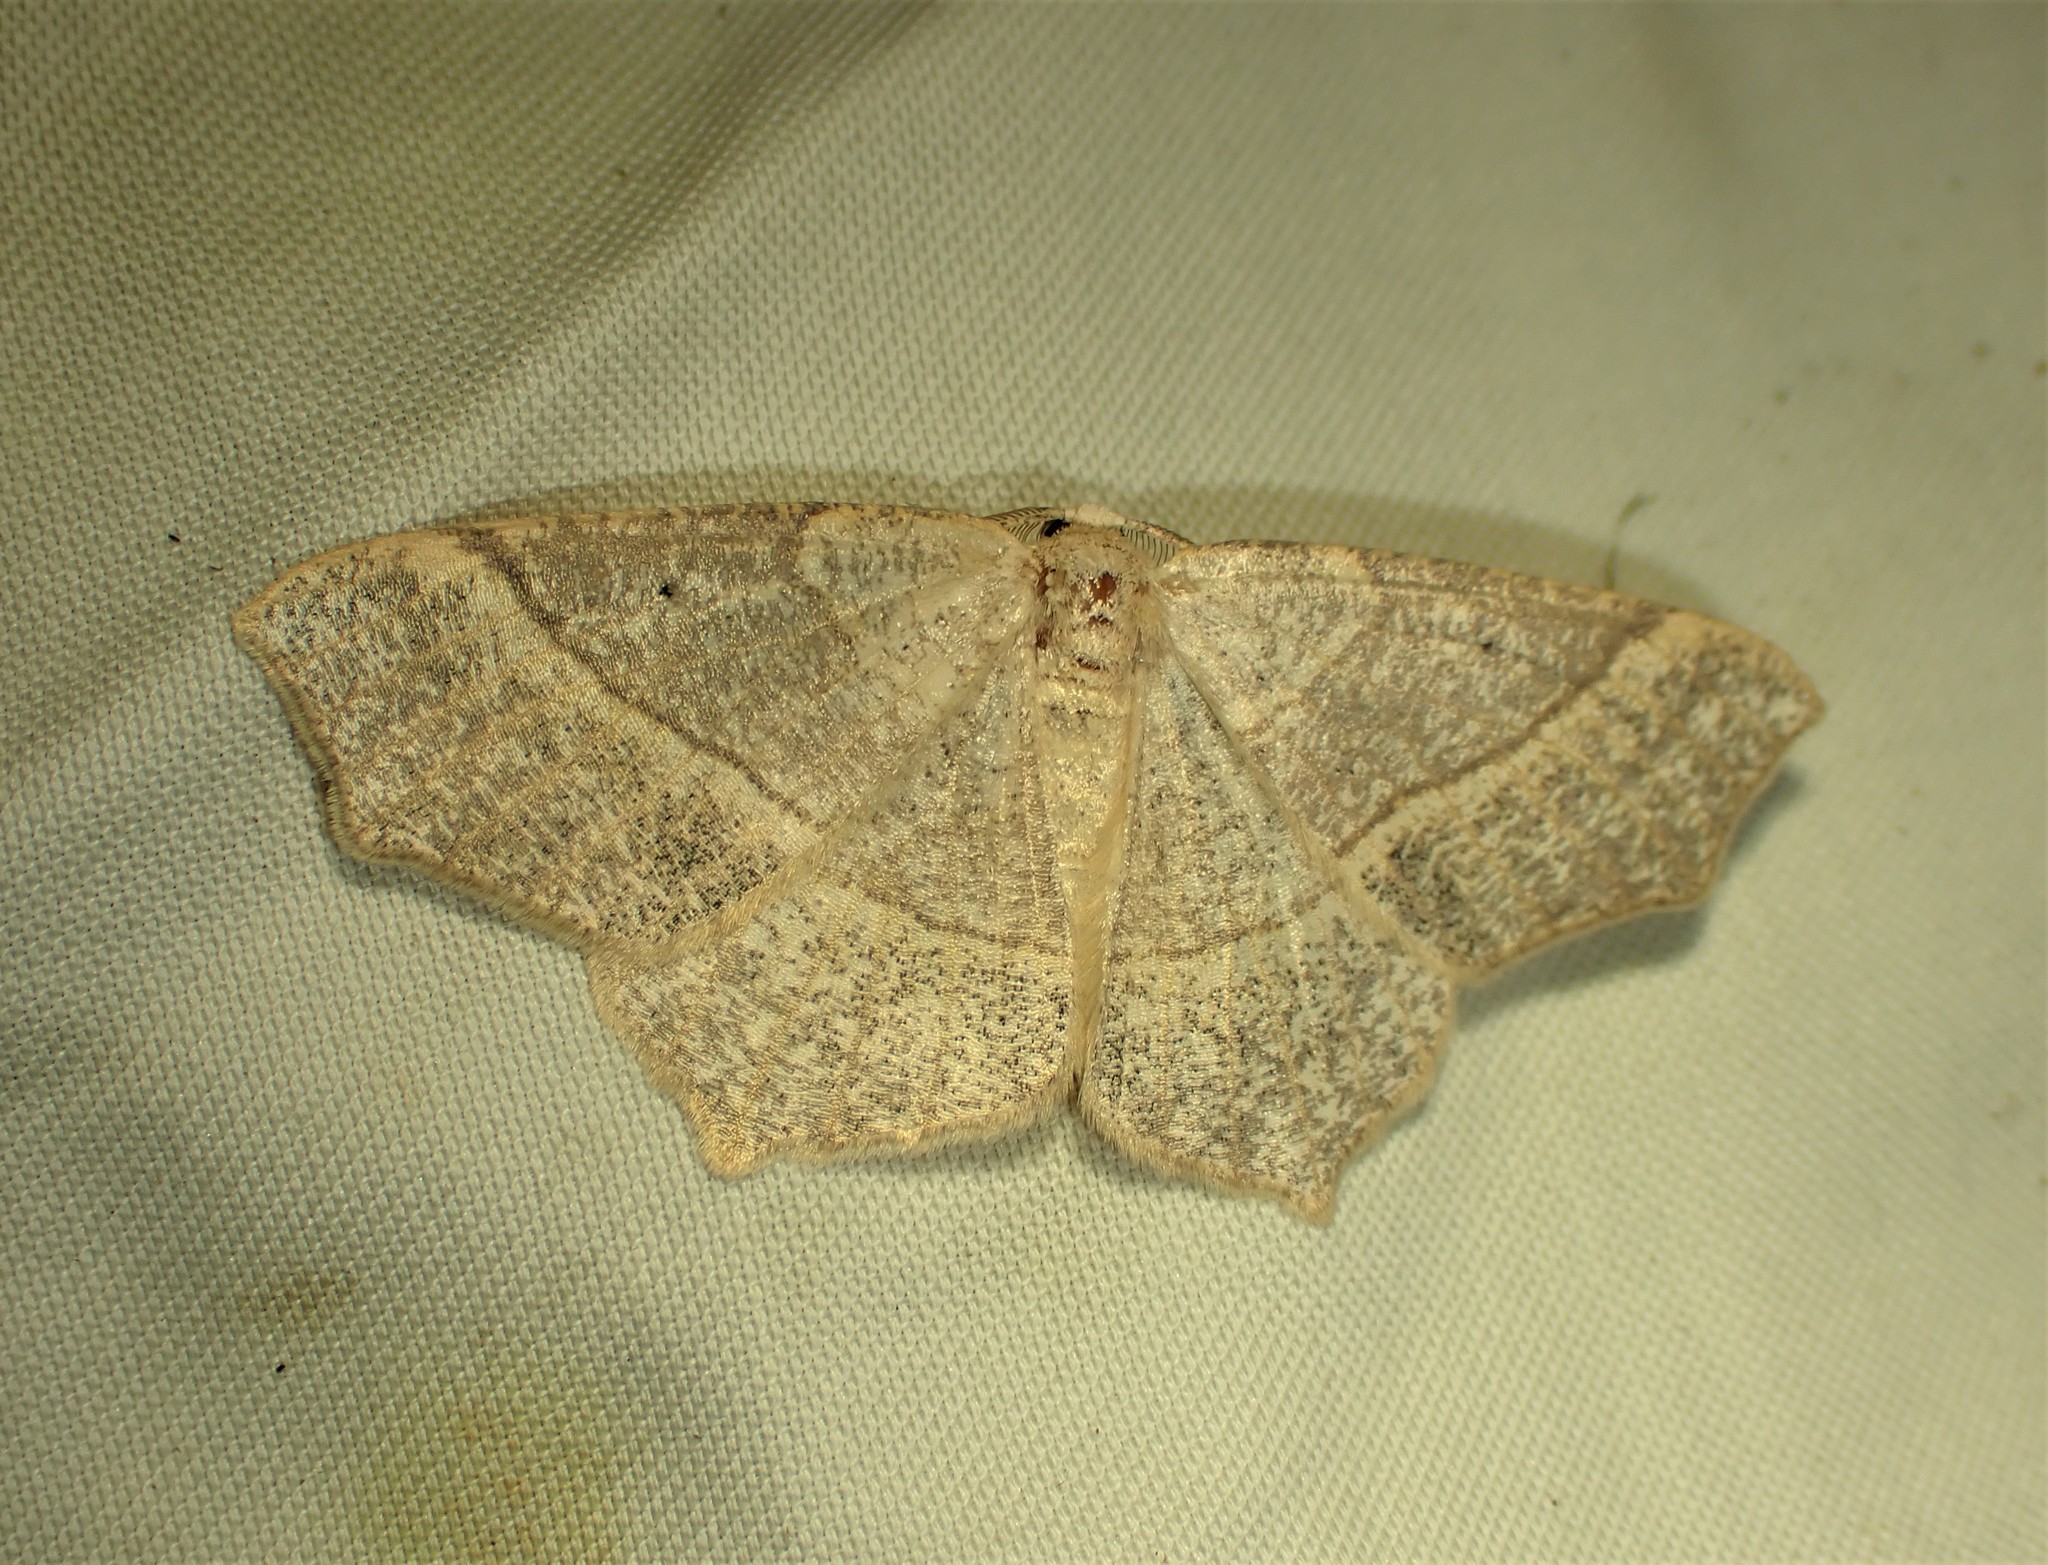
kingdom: Animalia
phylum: Arthropoda
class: Insecta
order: Lepidoptera
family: Geometridae
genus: Besma
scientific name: Besma quercivoraria
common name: Oak besma
